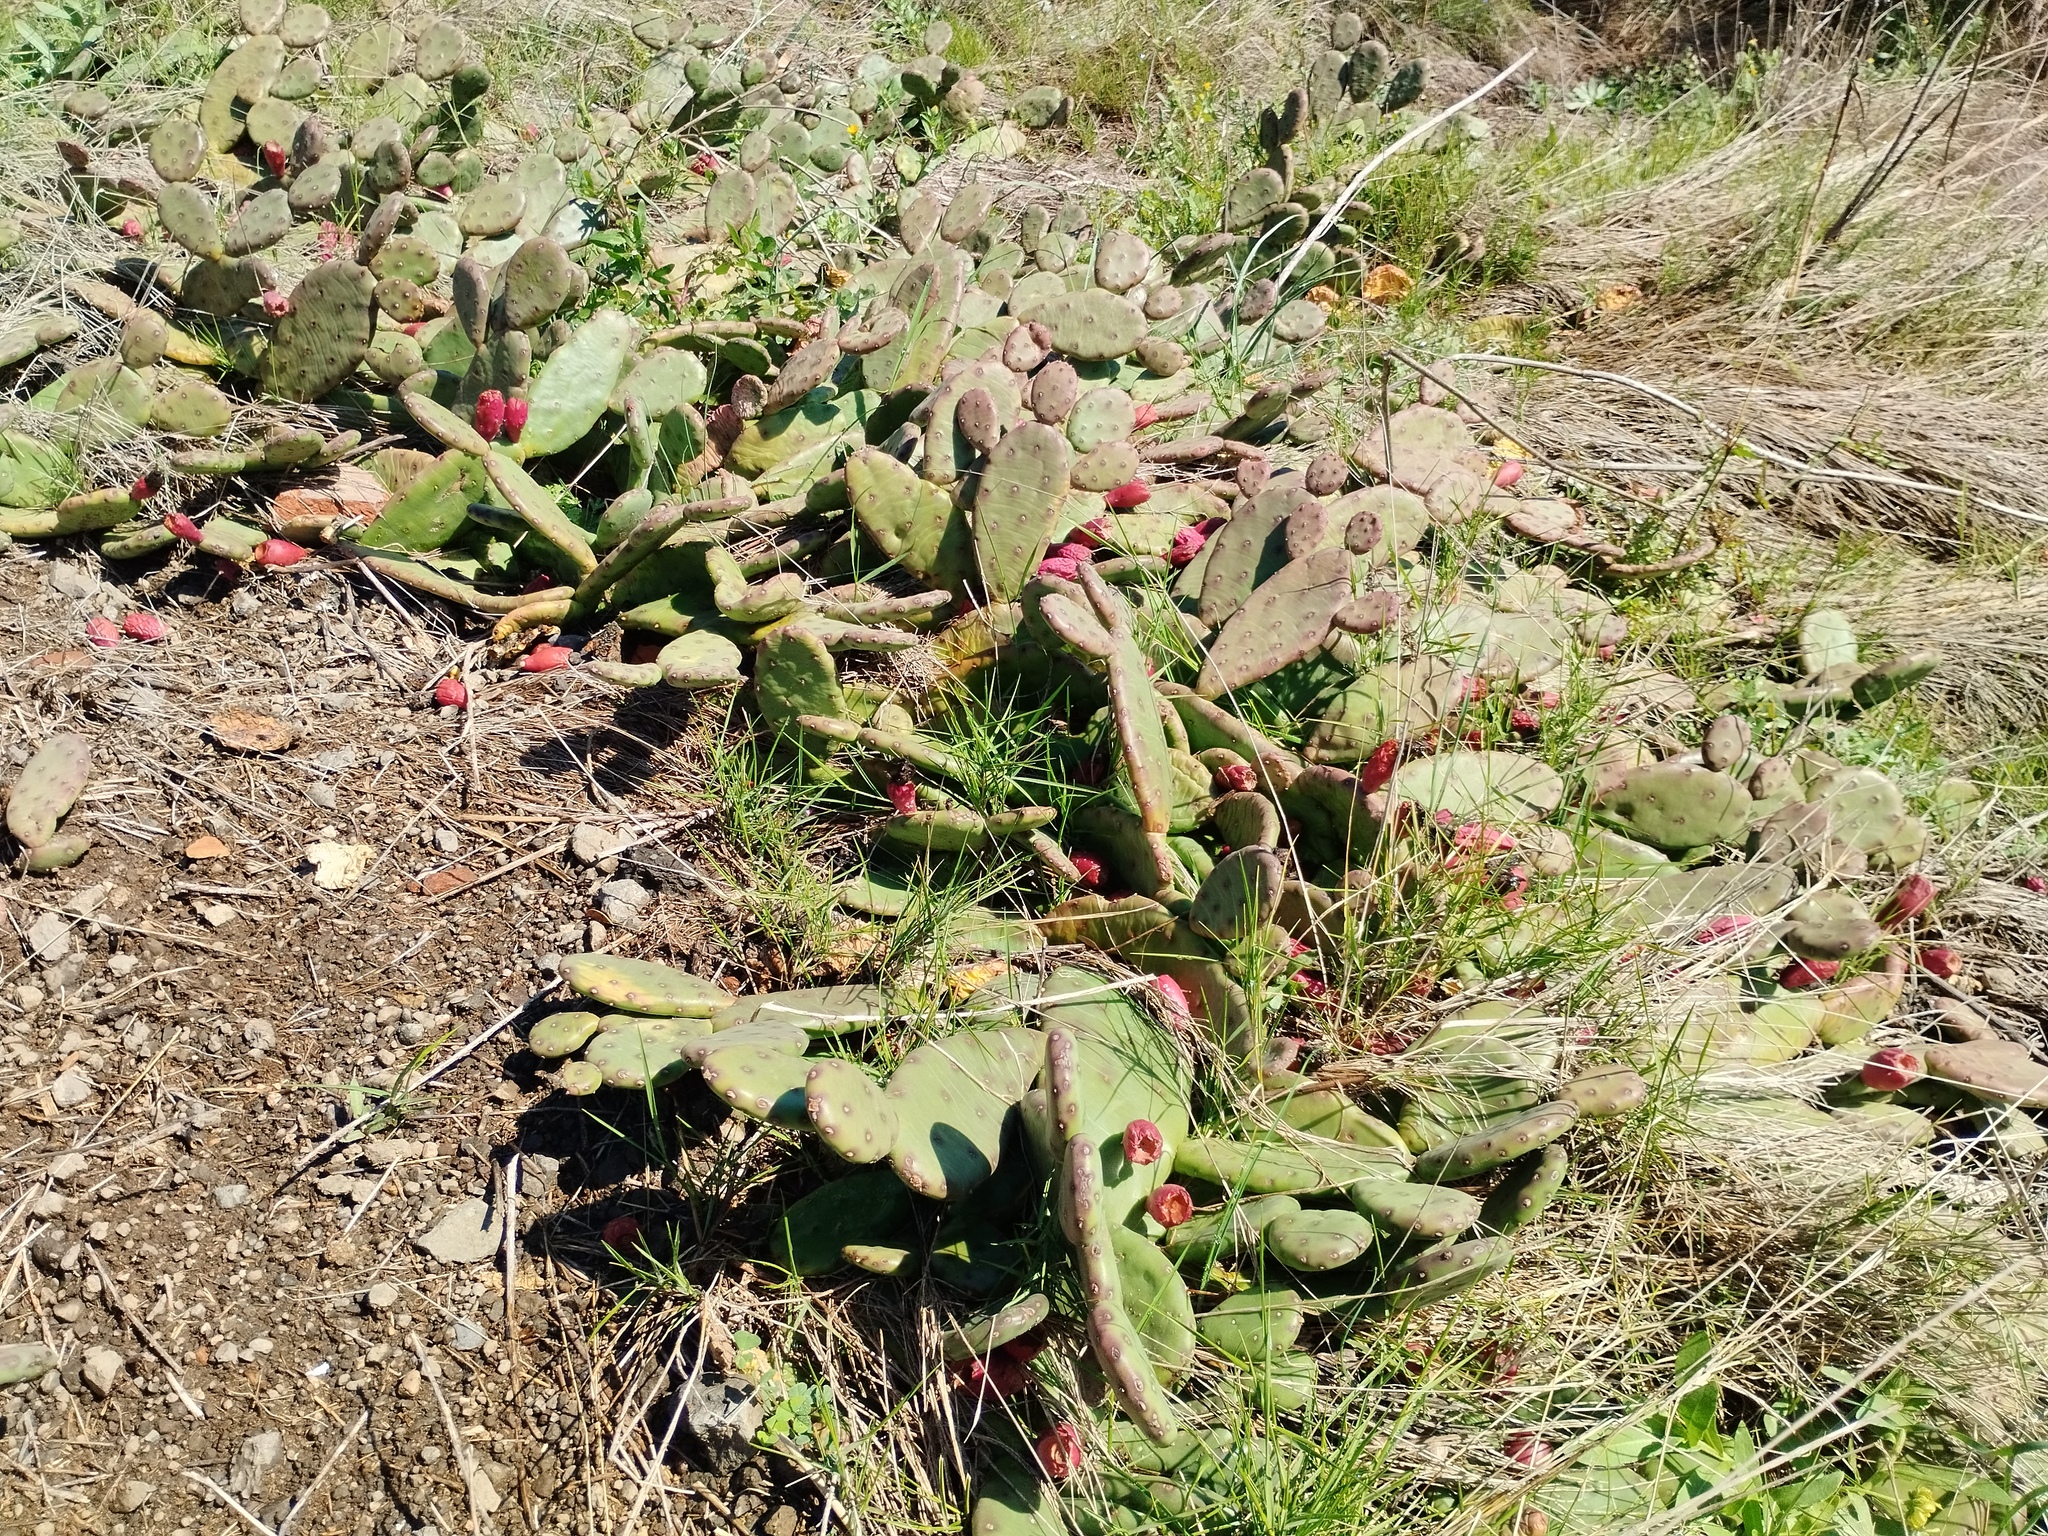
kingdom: Plantae
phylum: Tracheophyta
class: Magnoliopsida
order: Caryophyllales
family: Cactaceae
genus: Opuntia
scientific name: Opuntia humifusa
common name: Eastern prickly-pear
